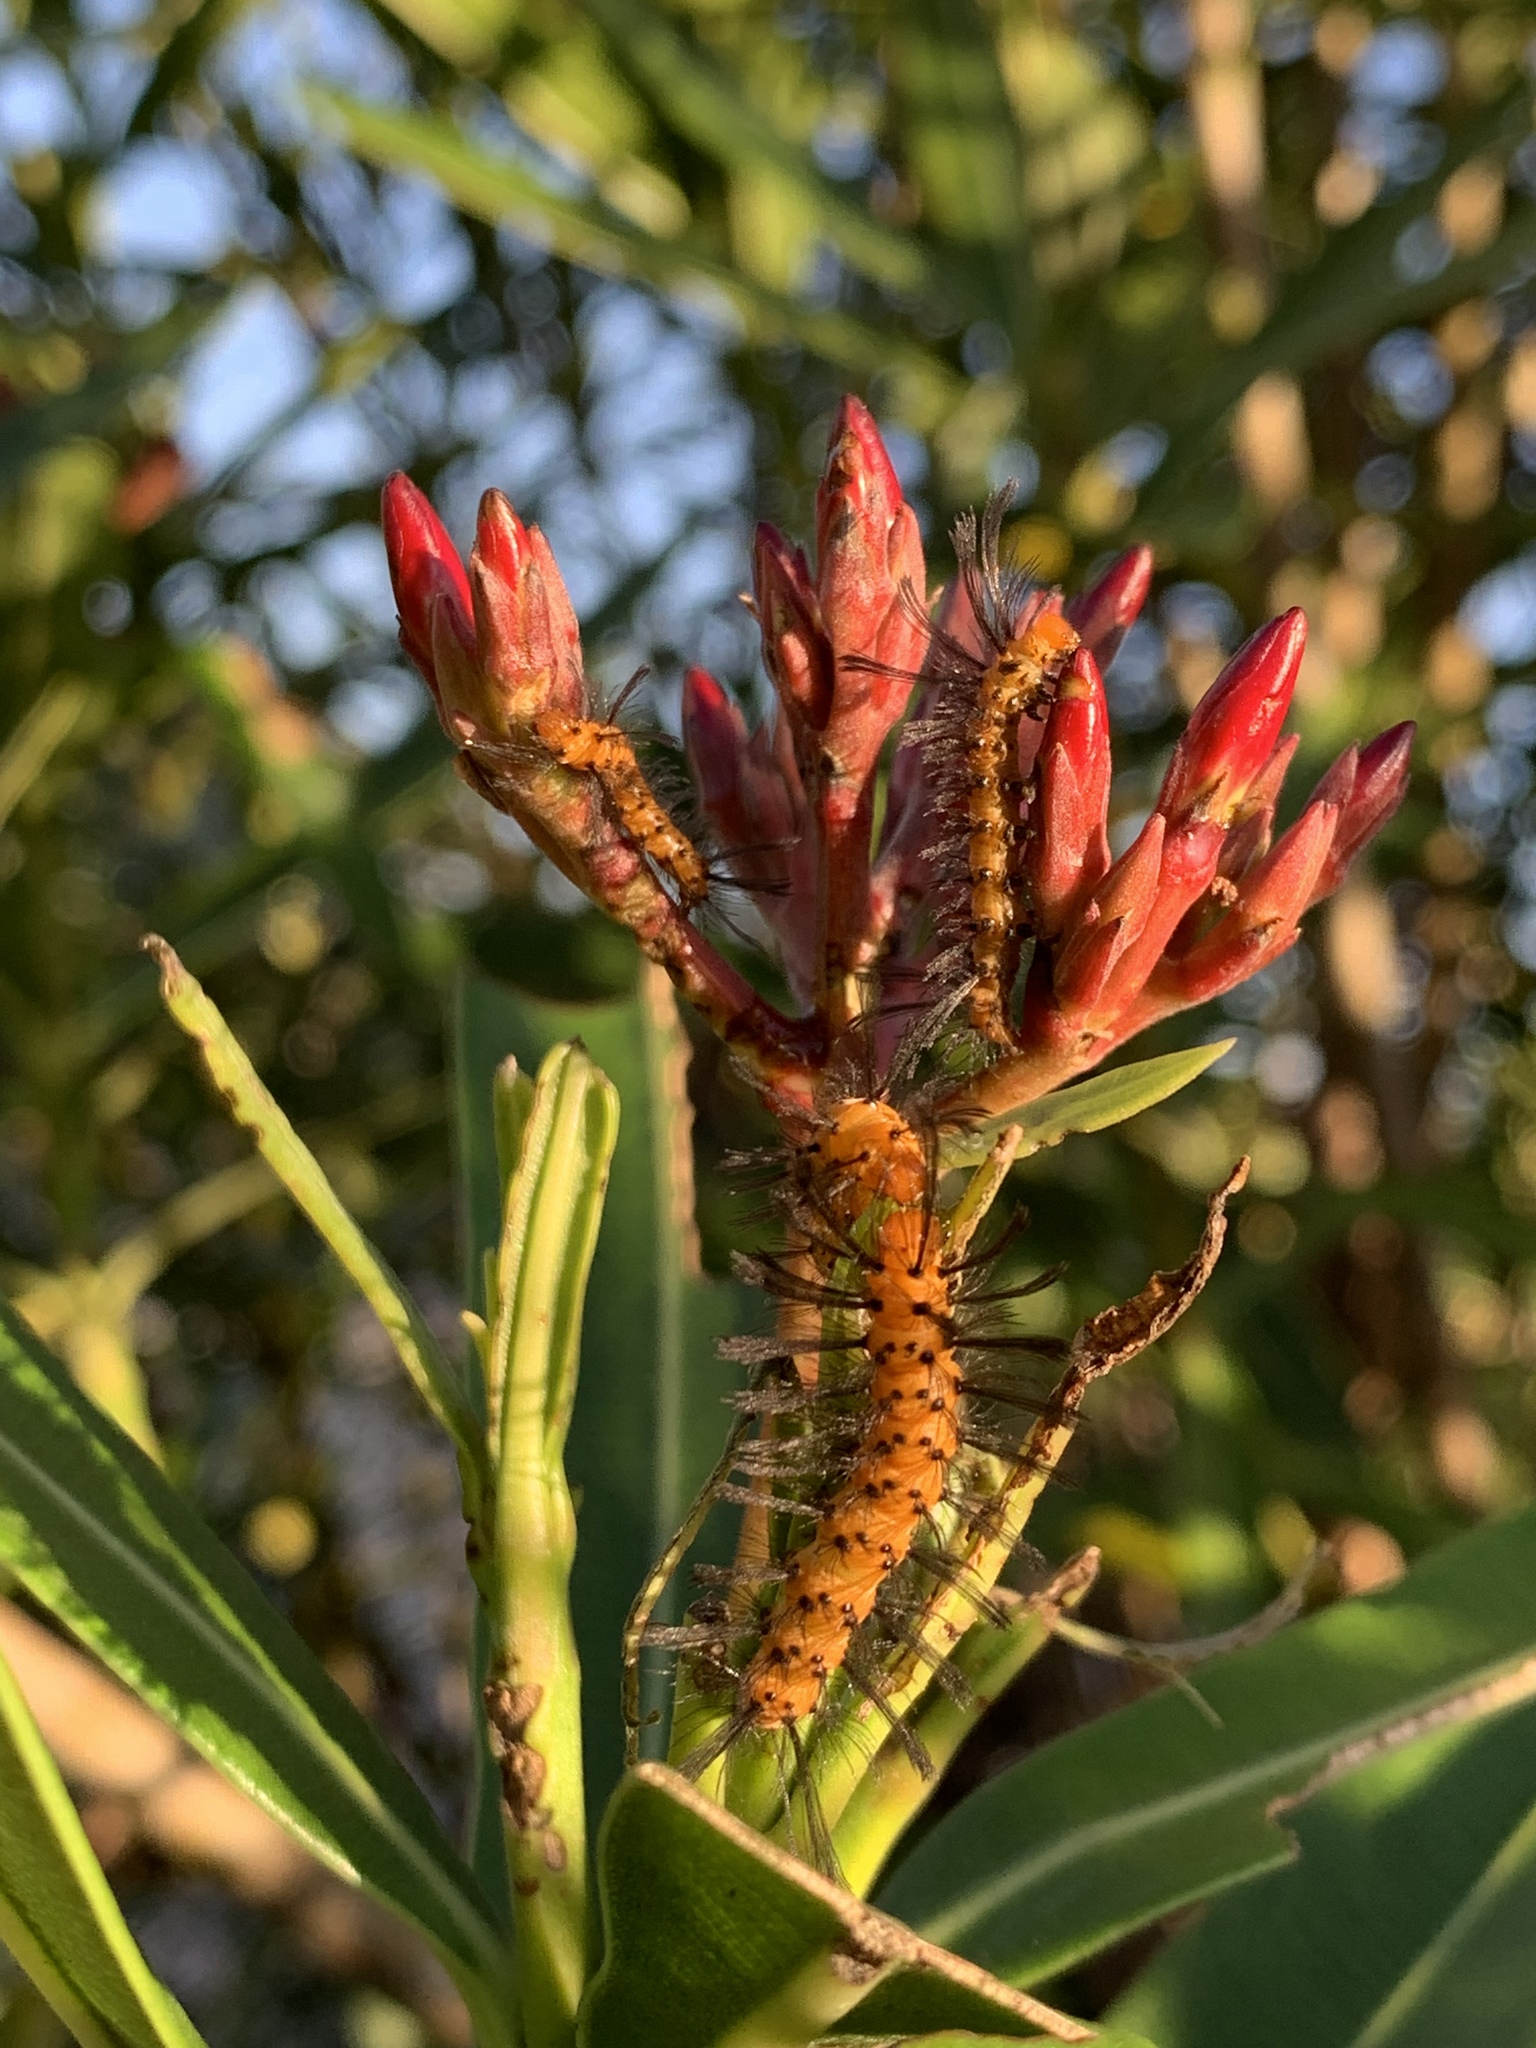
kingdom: Animalia
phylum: Arthropoda
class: Insecta
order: Lepidoptera
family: Erebidae
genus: Syntomeida
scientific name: Syntomeida epilais
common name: Polka-dot wasp moth
